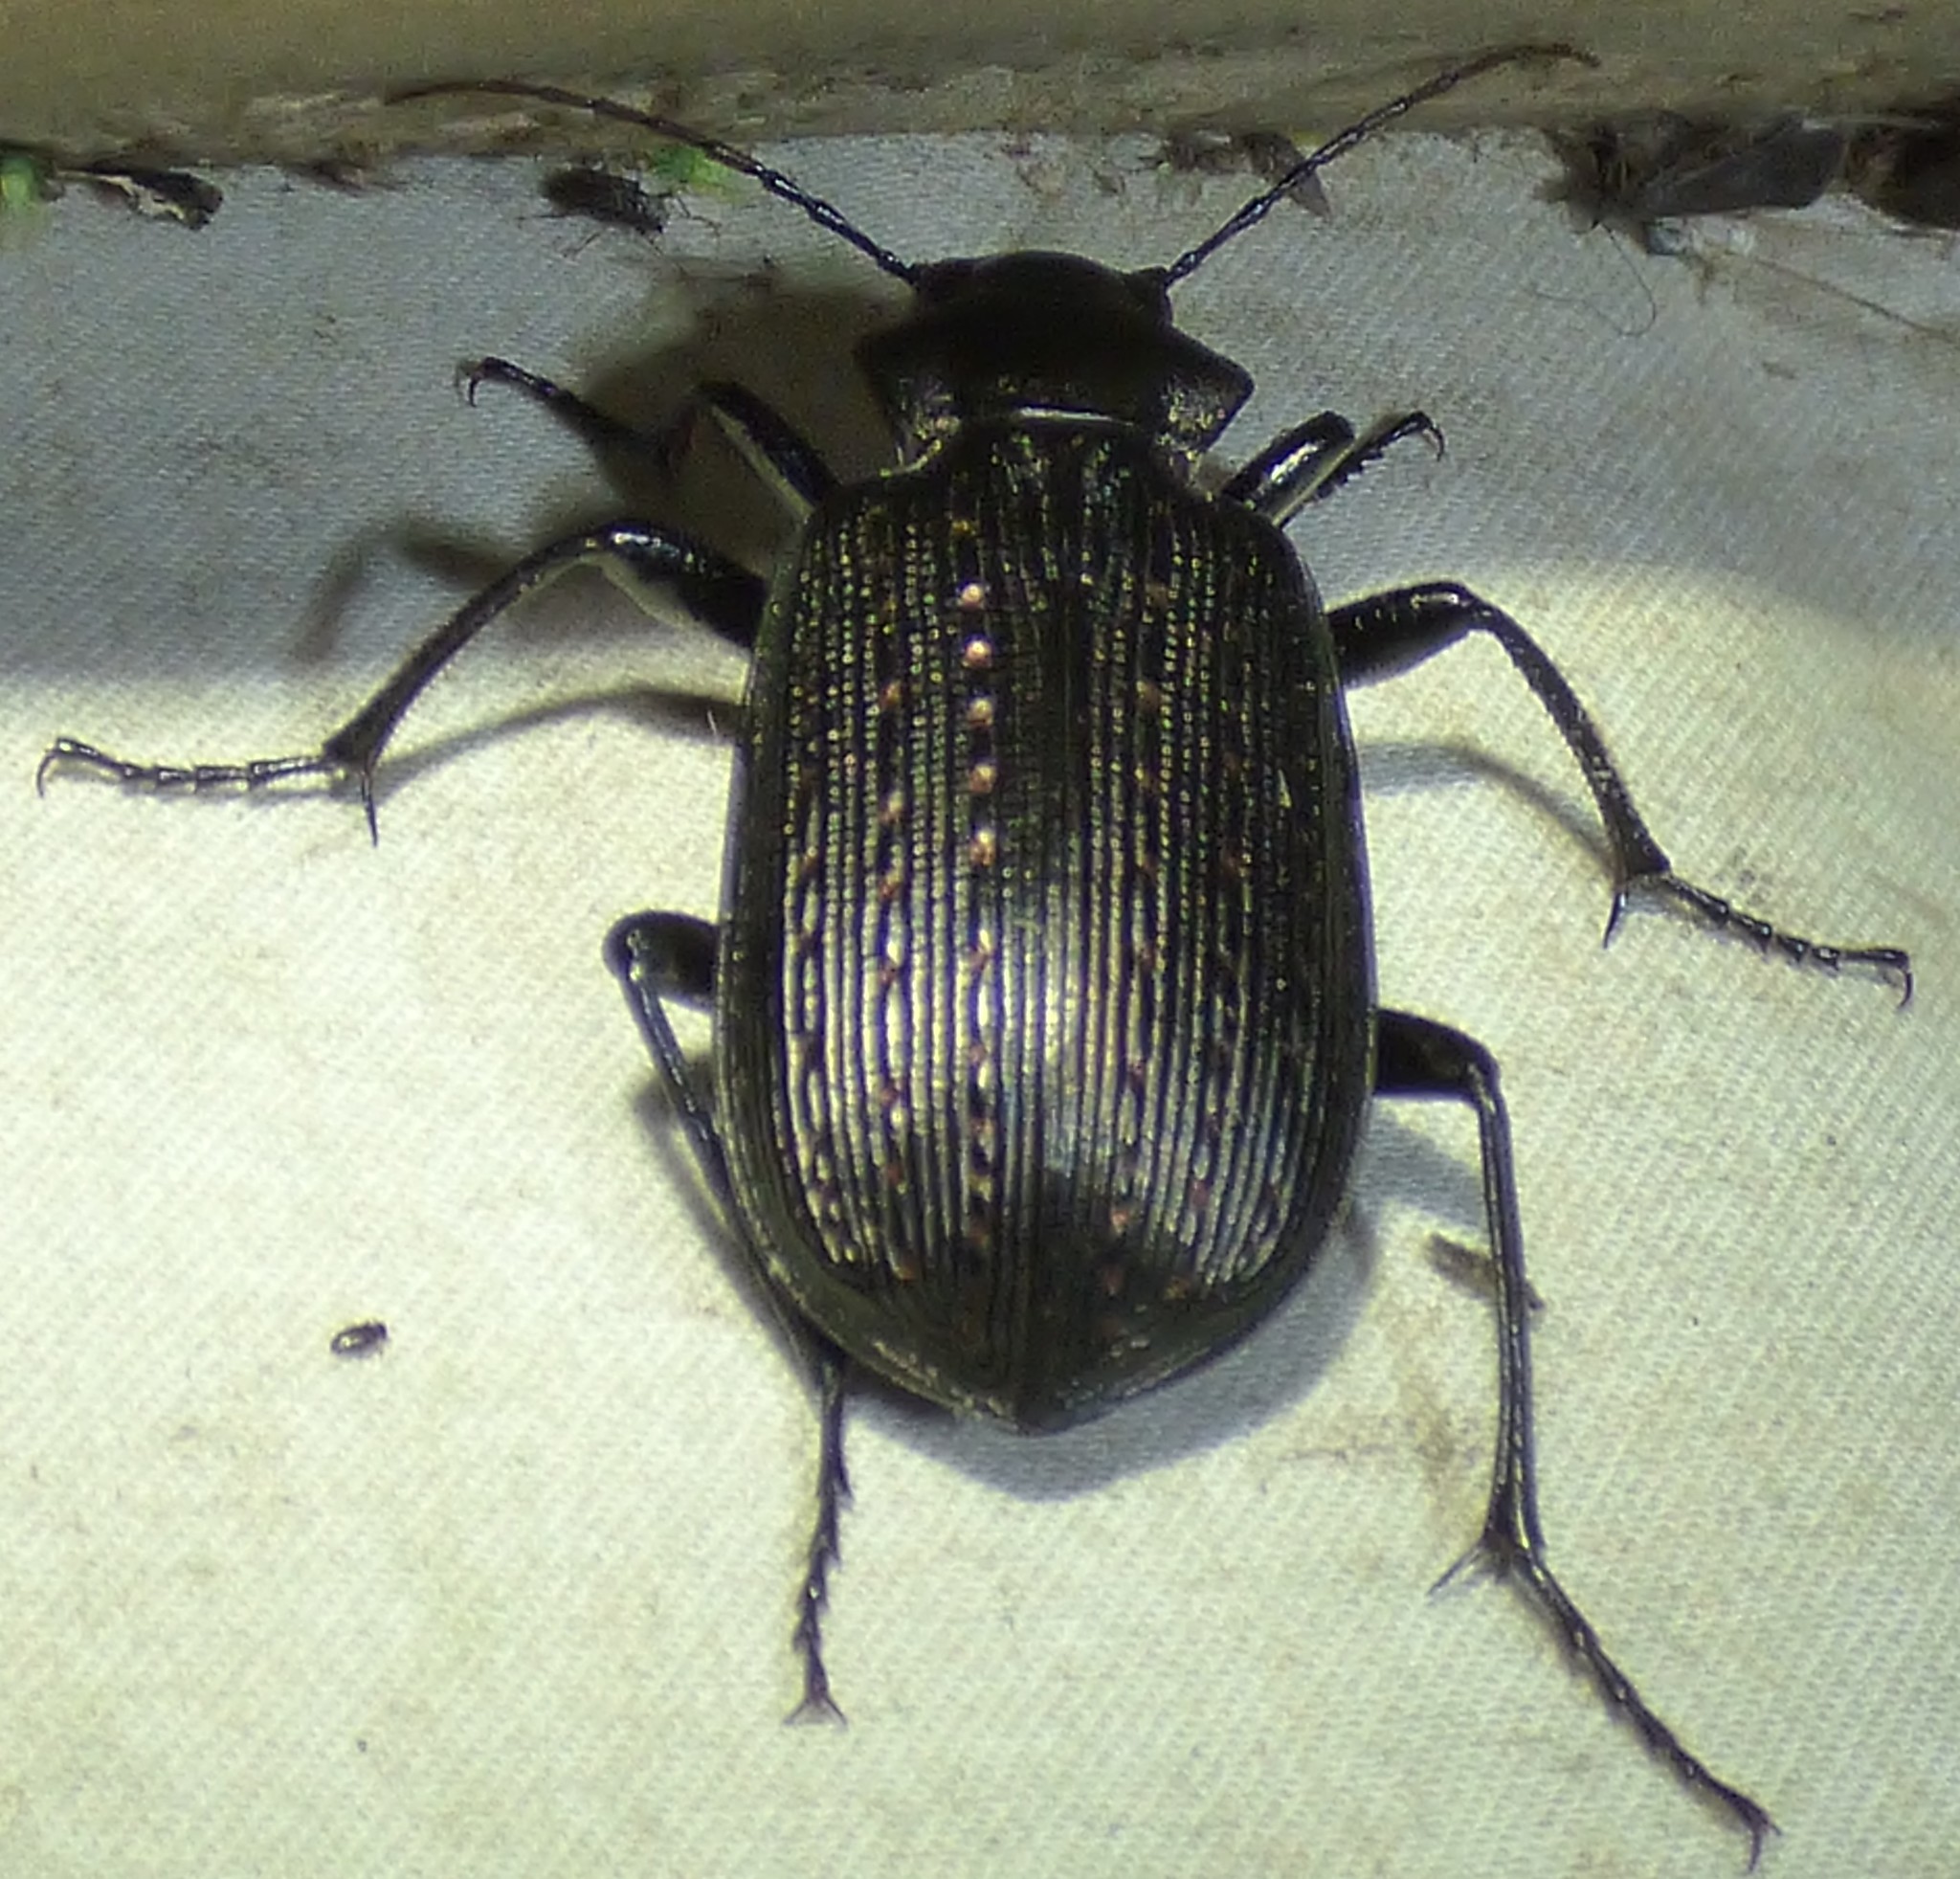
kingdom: Animalia
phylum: Arthropoda
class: Insecta
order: Coleoptera
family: Carabidae
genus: Calosoma
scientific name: Calosoma sayi
